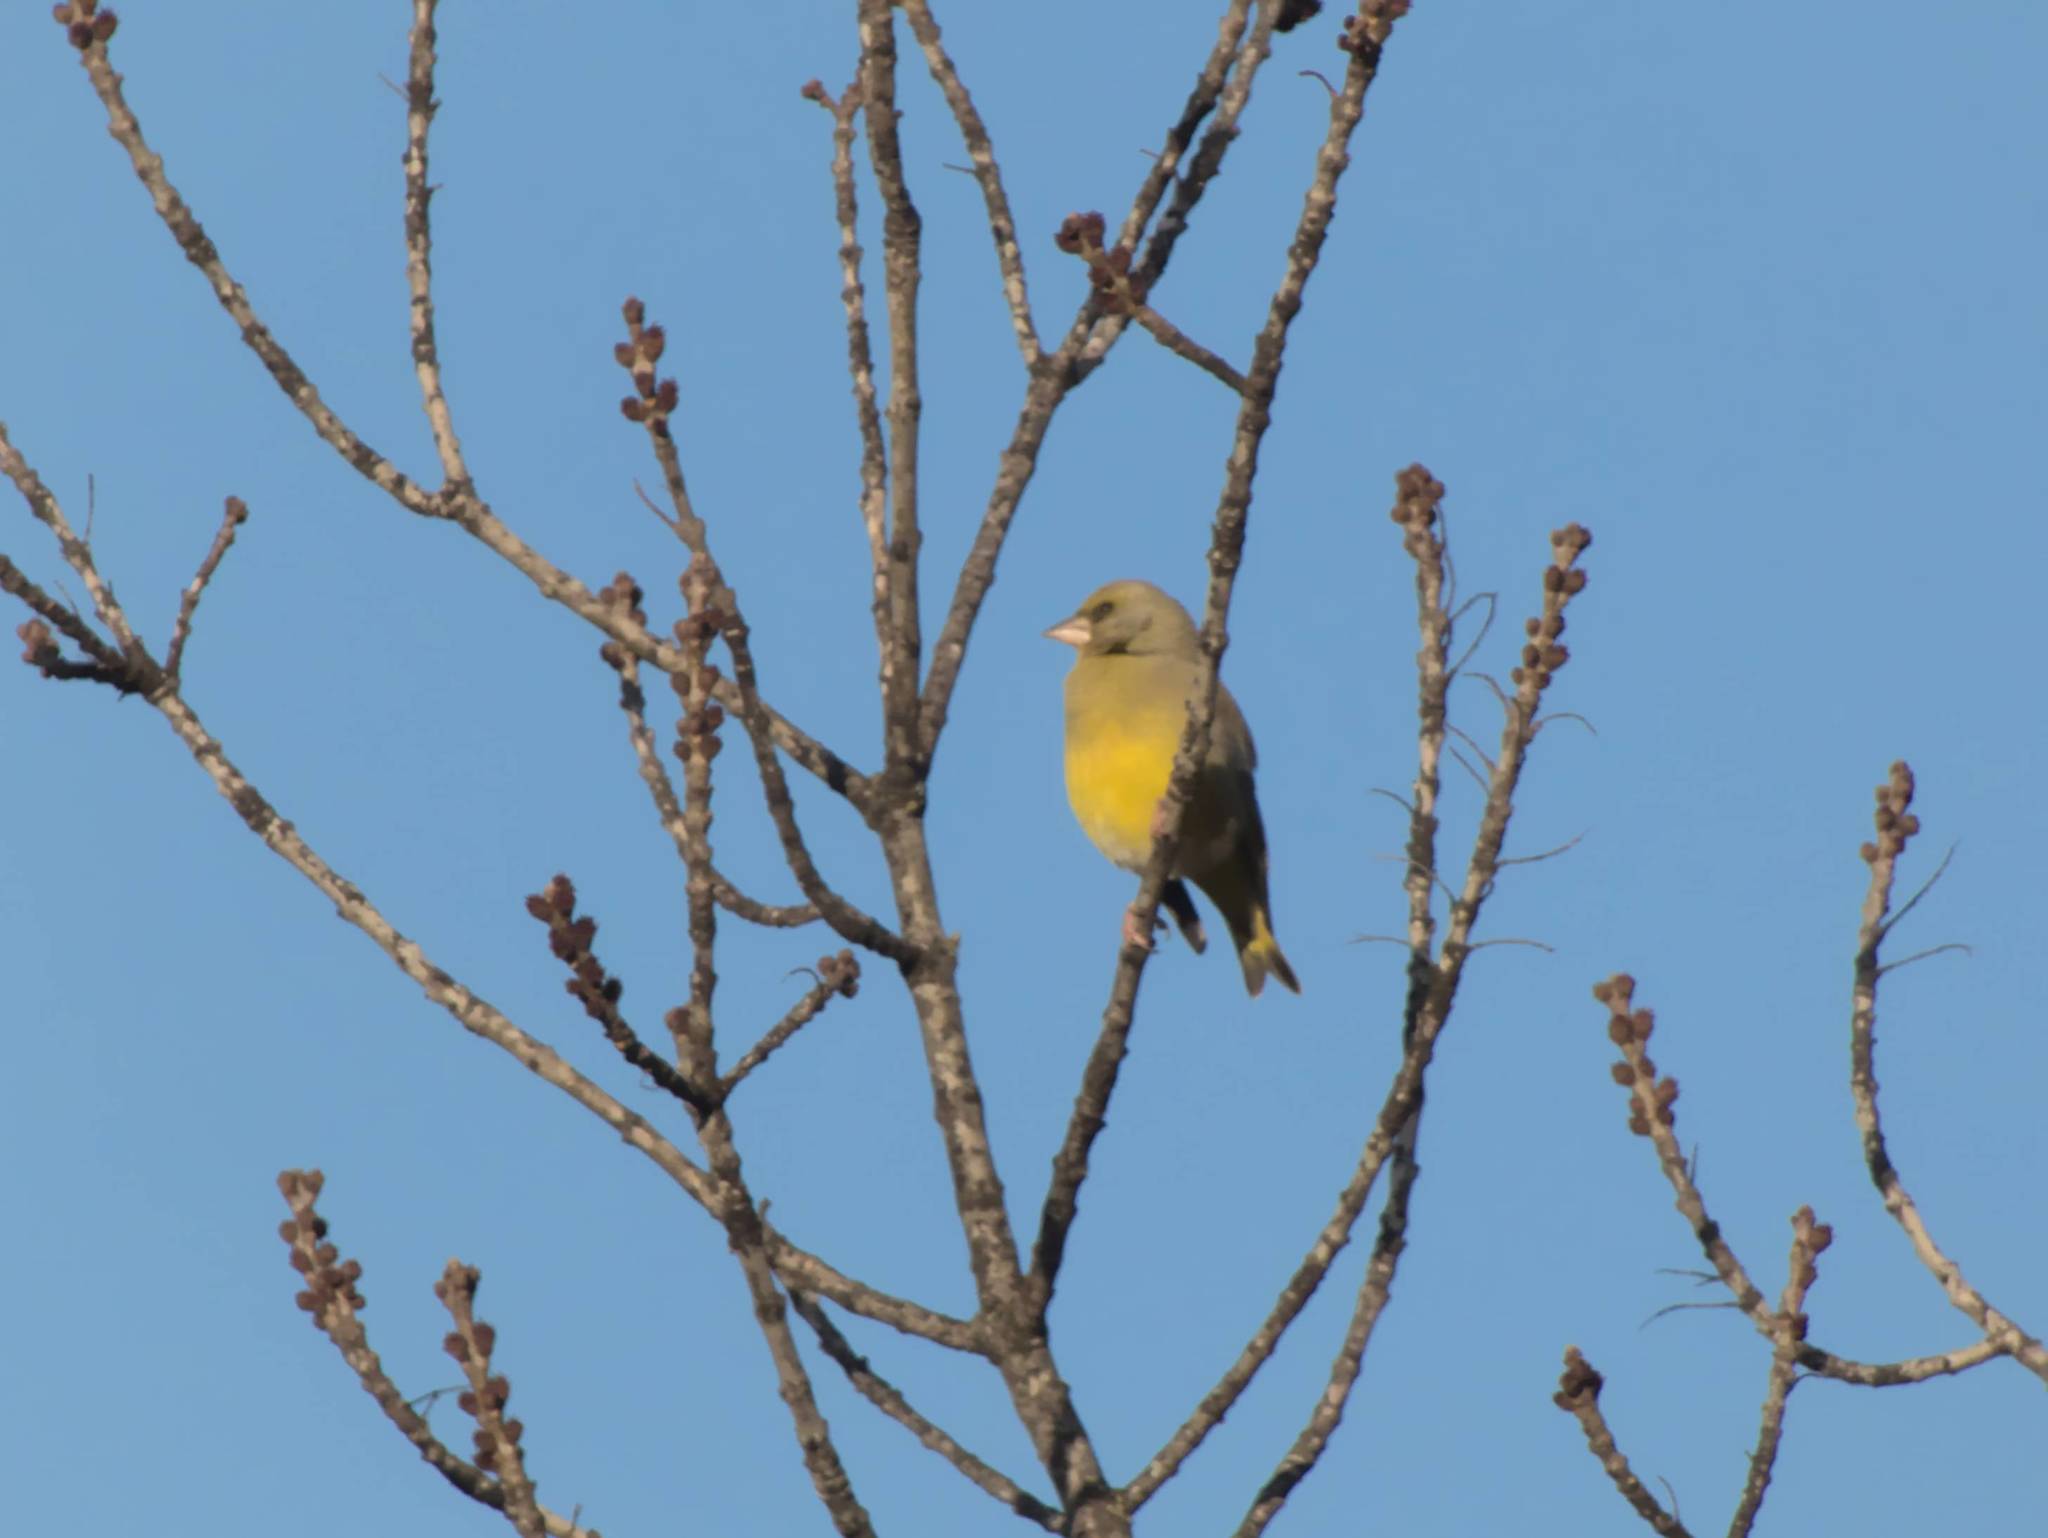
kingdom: Plantae
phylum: Tracheophyta
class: Liliopsida
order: Poales
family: Poaceae
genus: Chloris
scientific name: Chloris chloris
